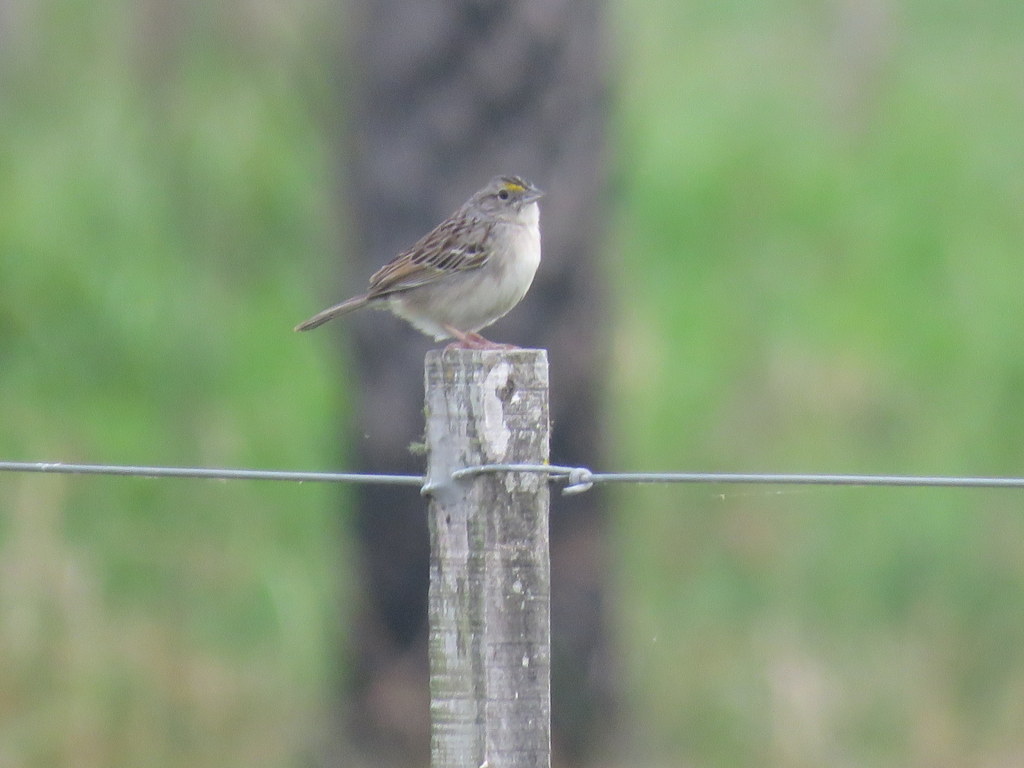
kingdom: Animalia
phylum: Chordata
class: Aves
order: Passeriformes
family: Passerellidae
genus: Ammodramus
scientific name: Ammodramus humeralis
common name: Grassland sparrow
